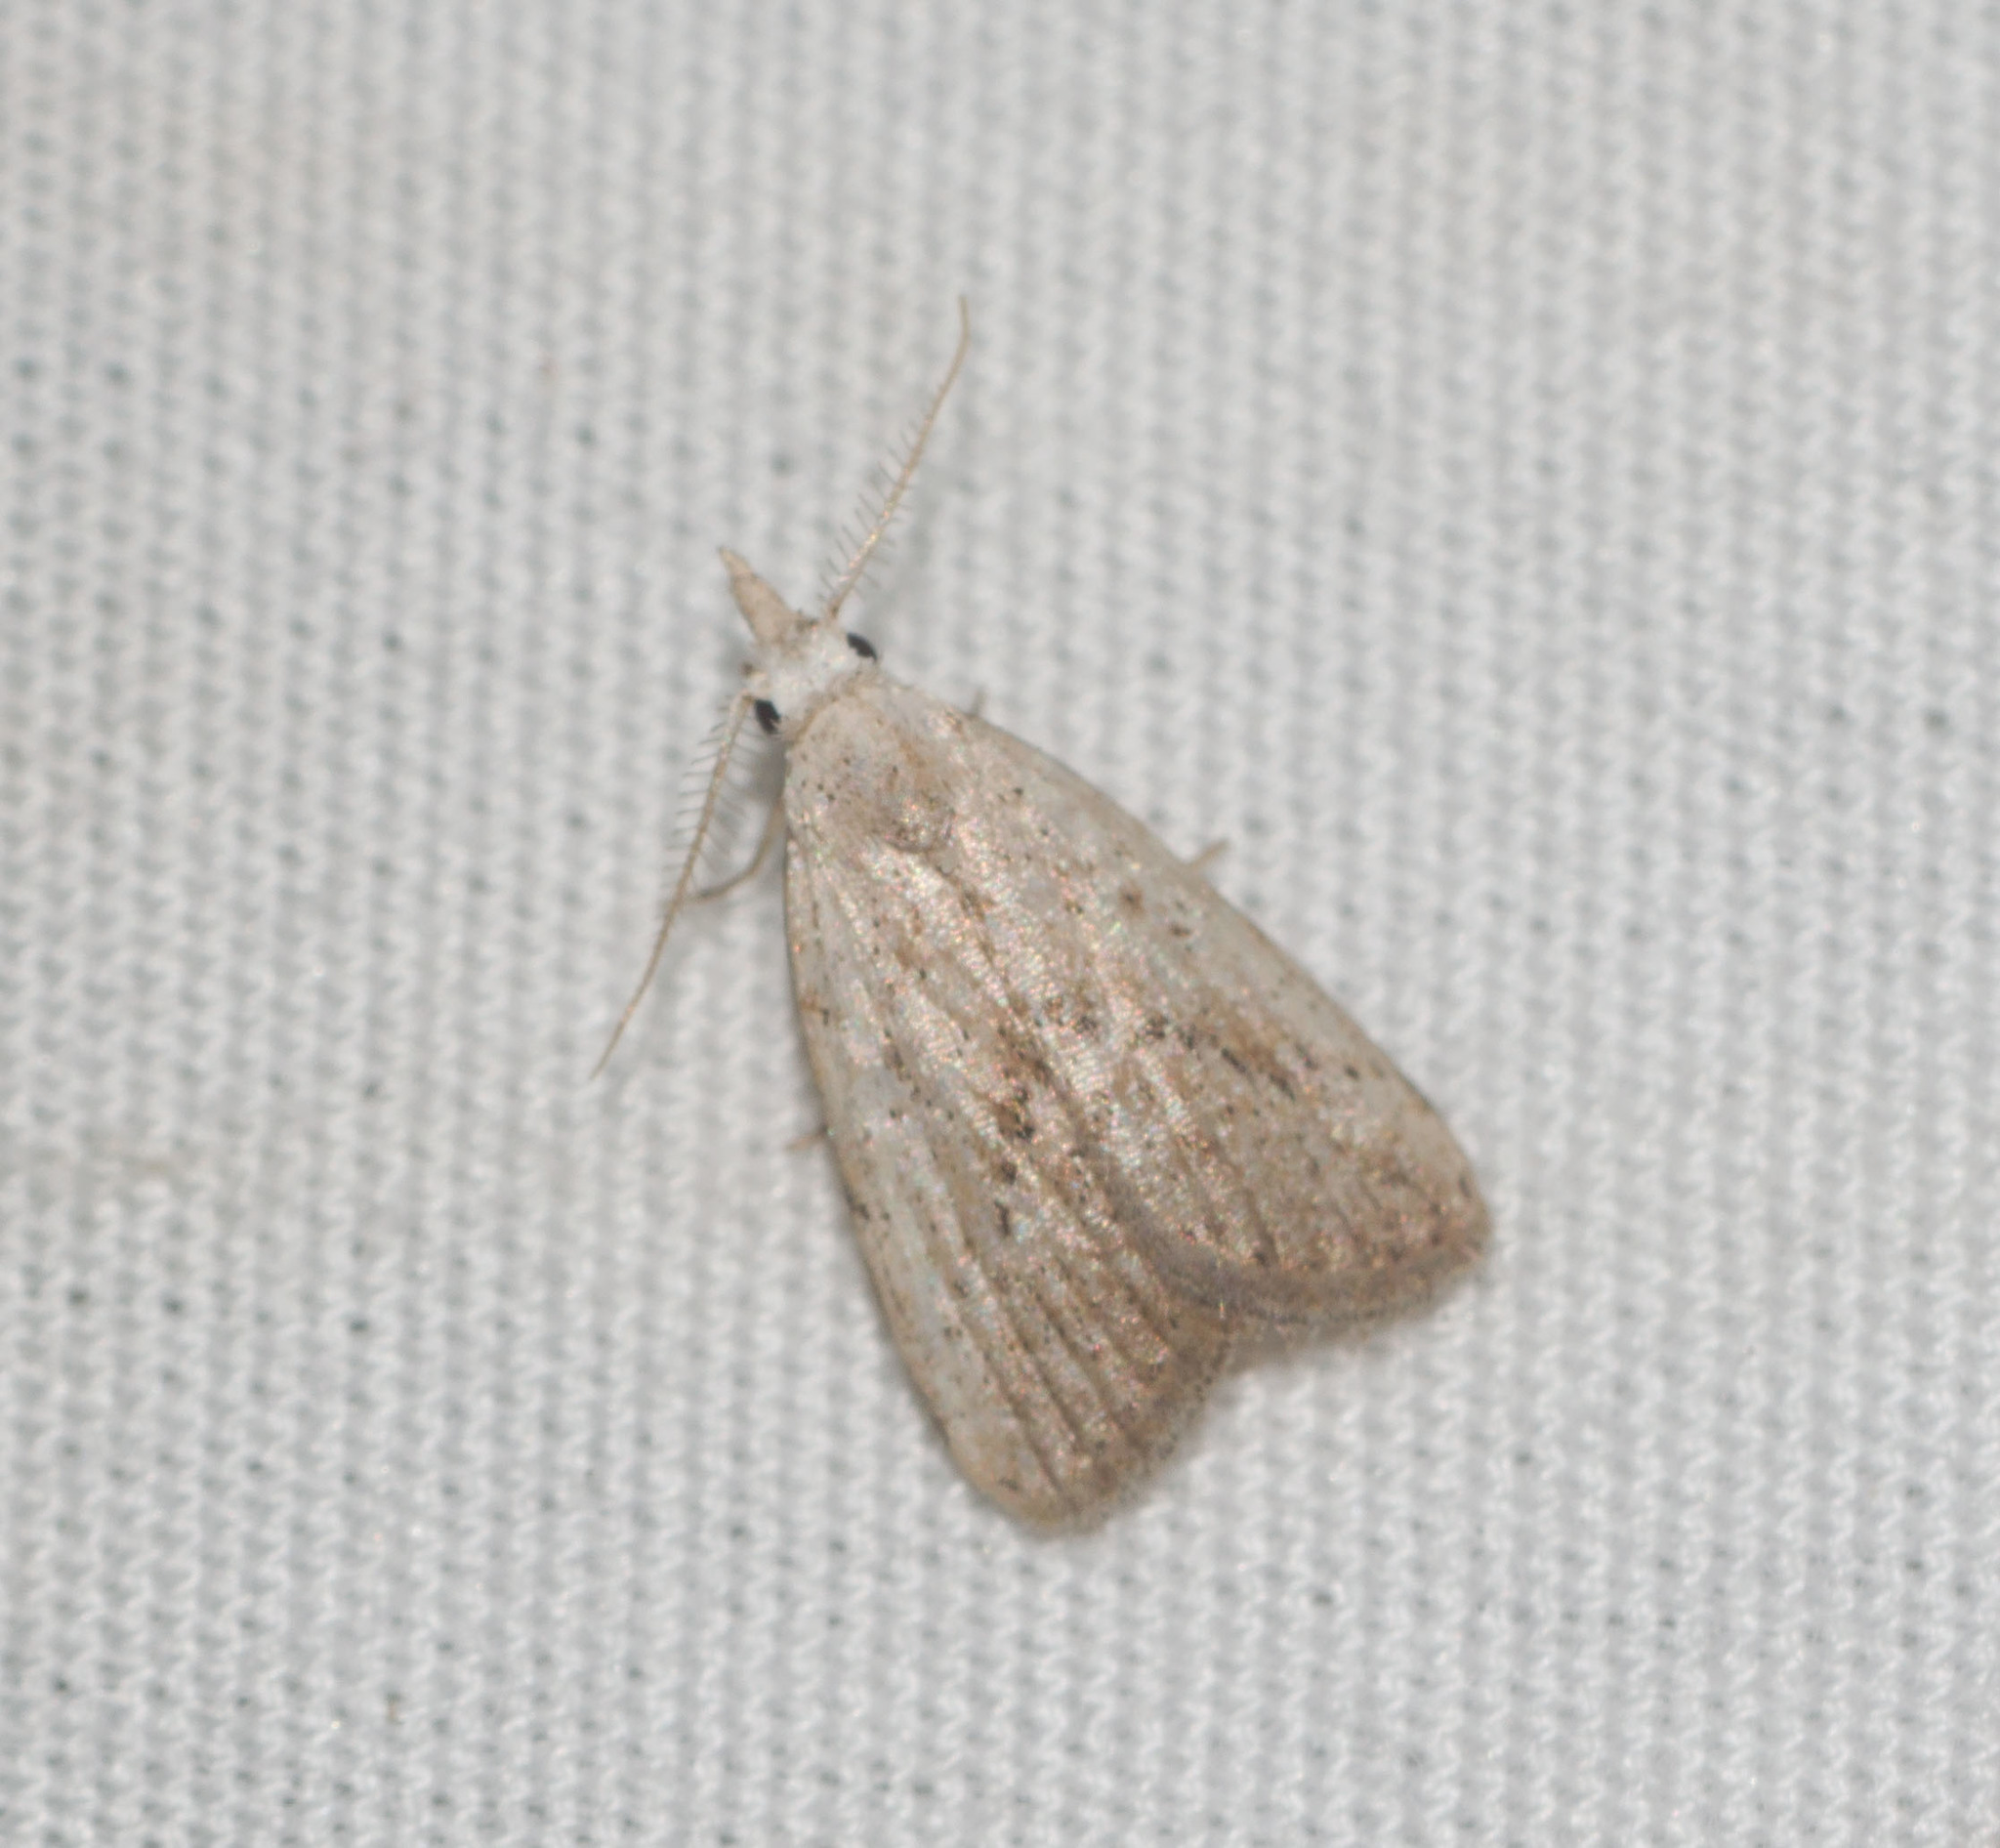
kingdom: Animalia
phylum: Arthropoda
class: Insecta
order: Lepidoptera
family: Nolidae
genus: Meganola
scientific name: Meganola brunellus
